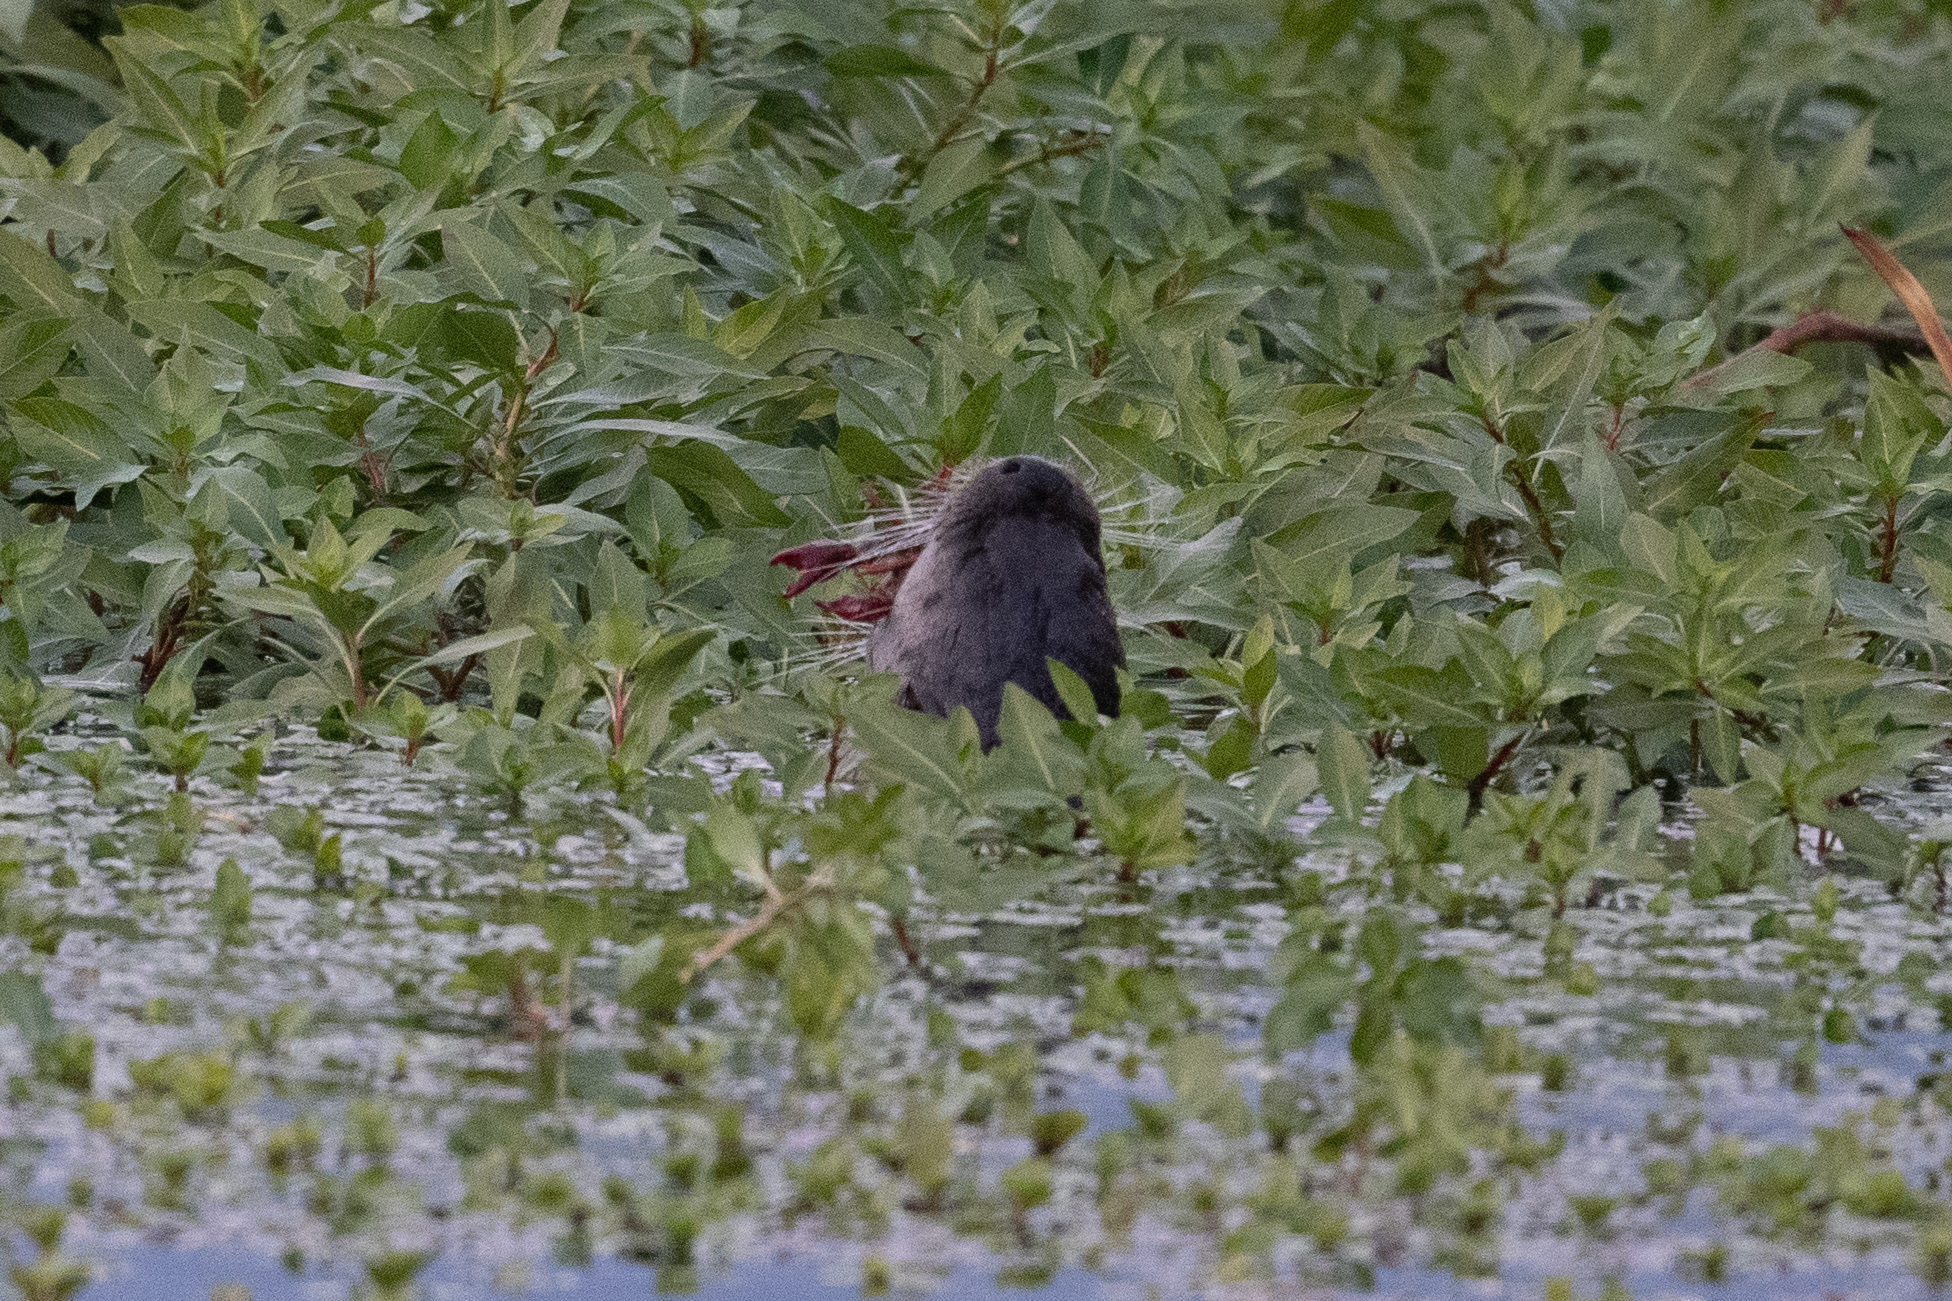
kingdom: Animalia
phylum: Chordata
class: Mammalia
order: Carnivora
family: Mustelidae
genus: Lontra
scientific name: Lontra canadensis
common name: North american river otter
